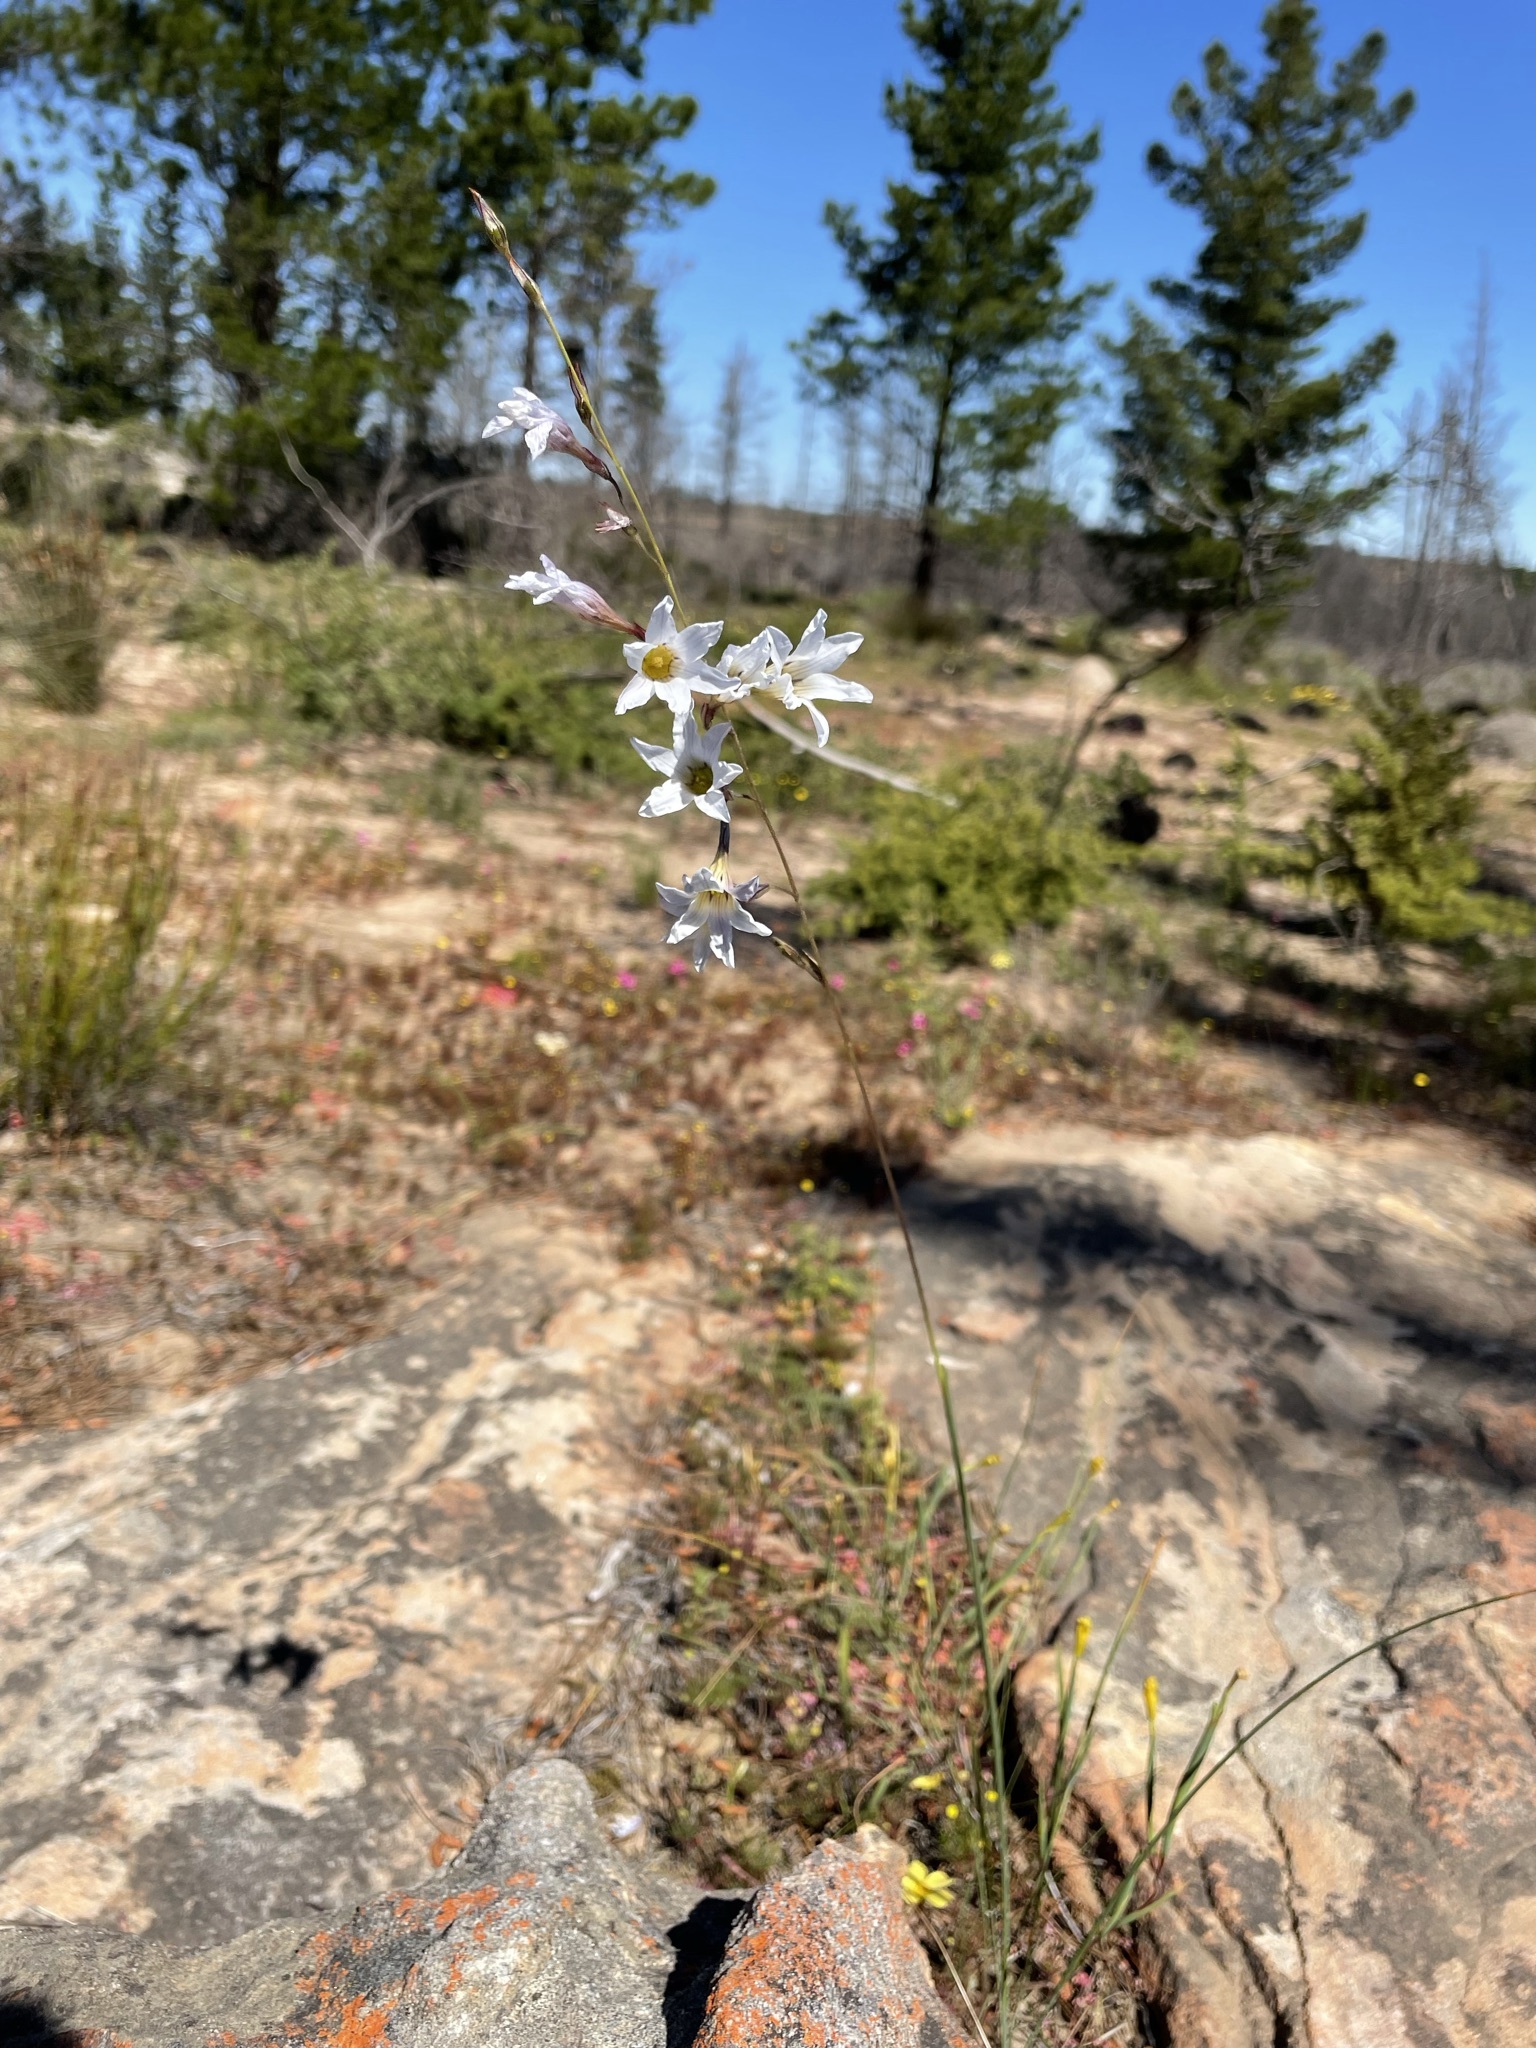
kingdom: Plantae
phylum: Tracheophyta
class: Liliopsida
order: Asparagales
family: Iridaceae
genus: Ixia
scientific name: Ixia namaquana
